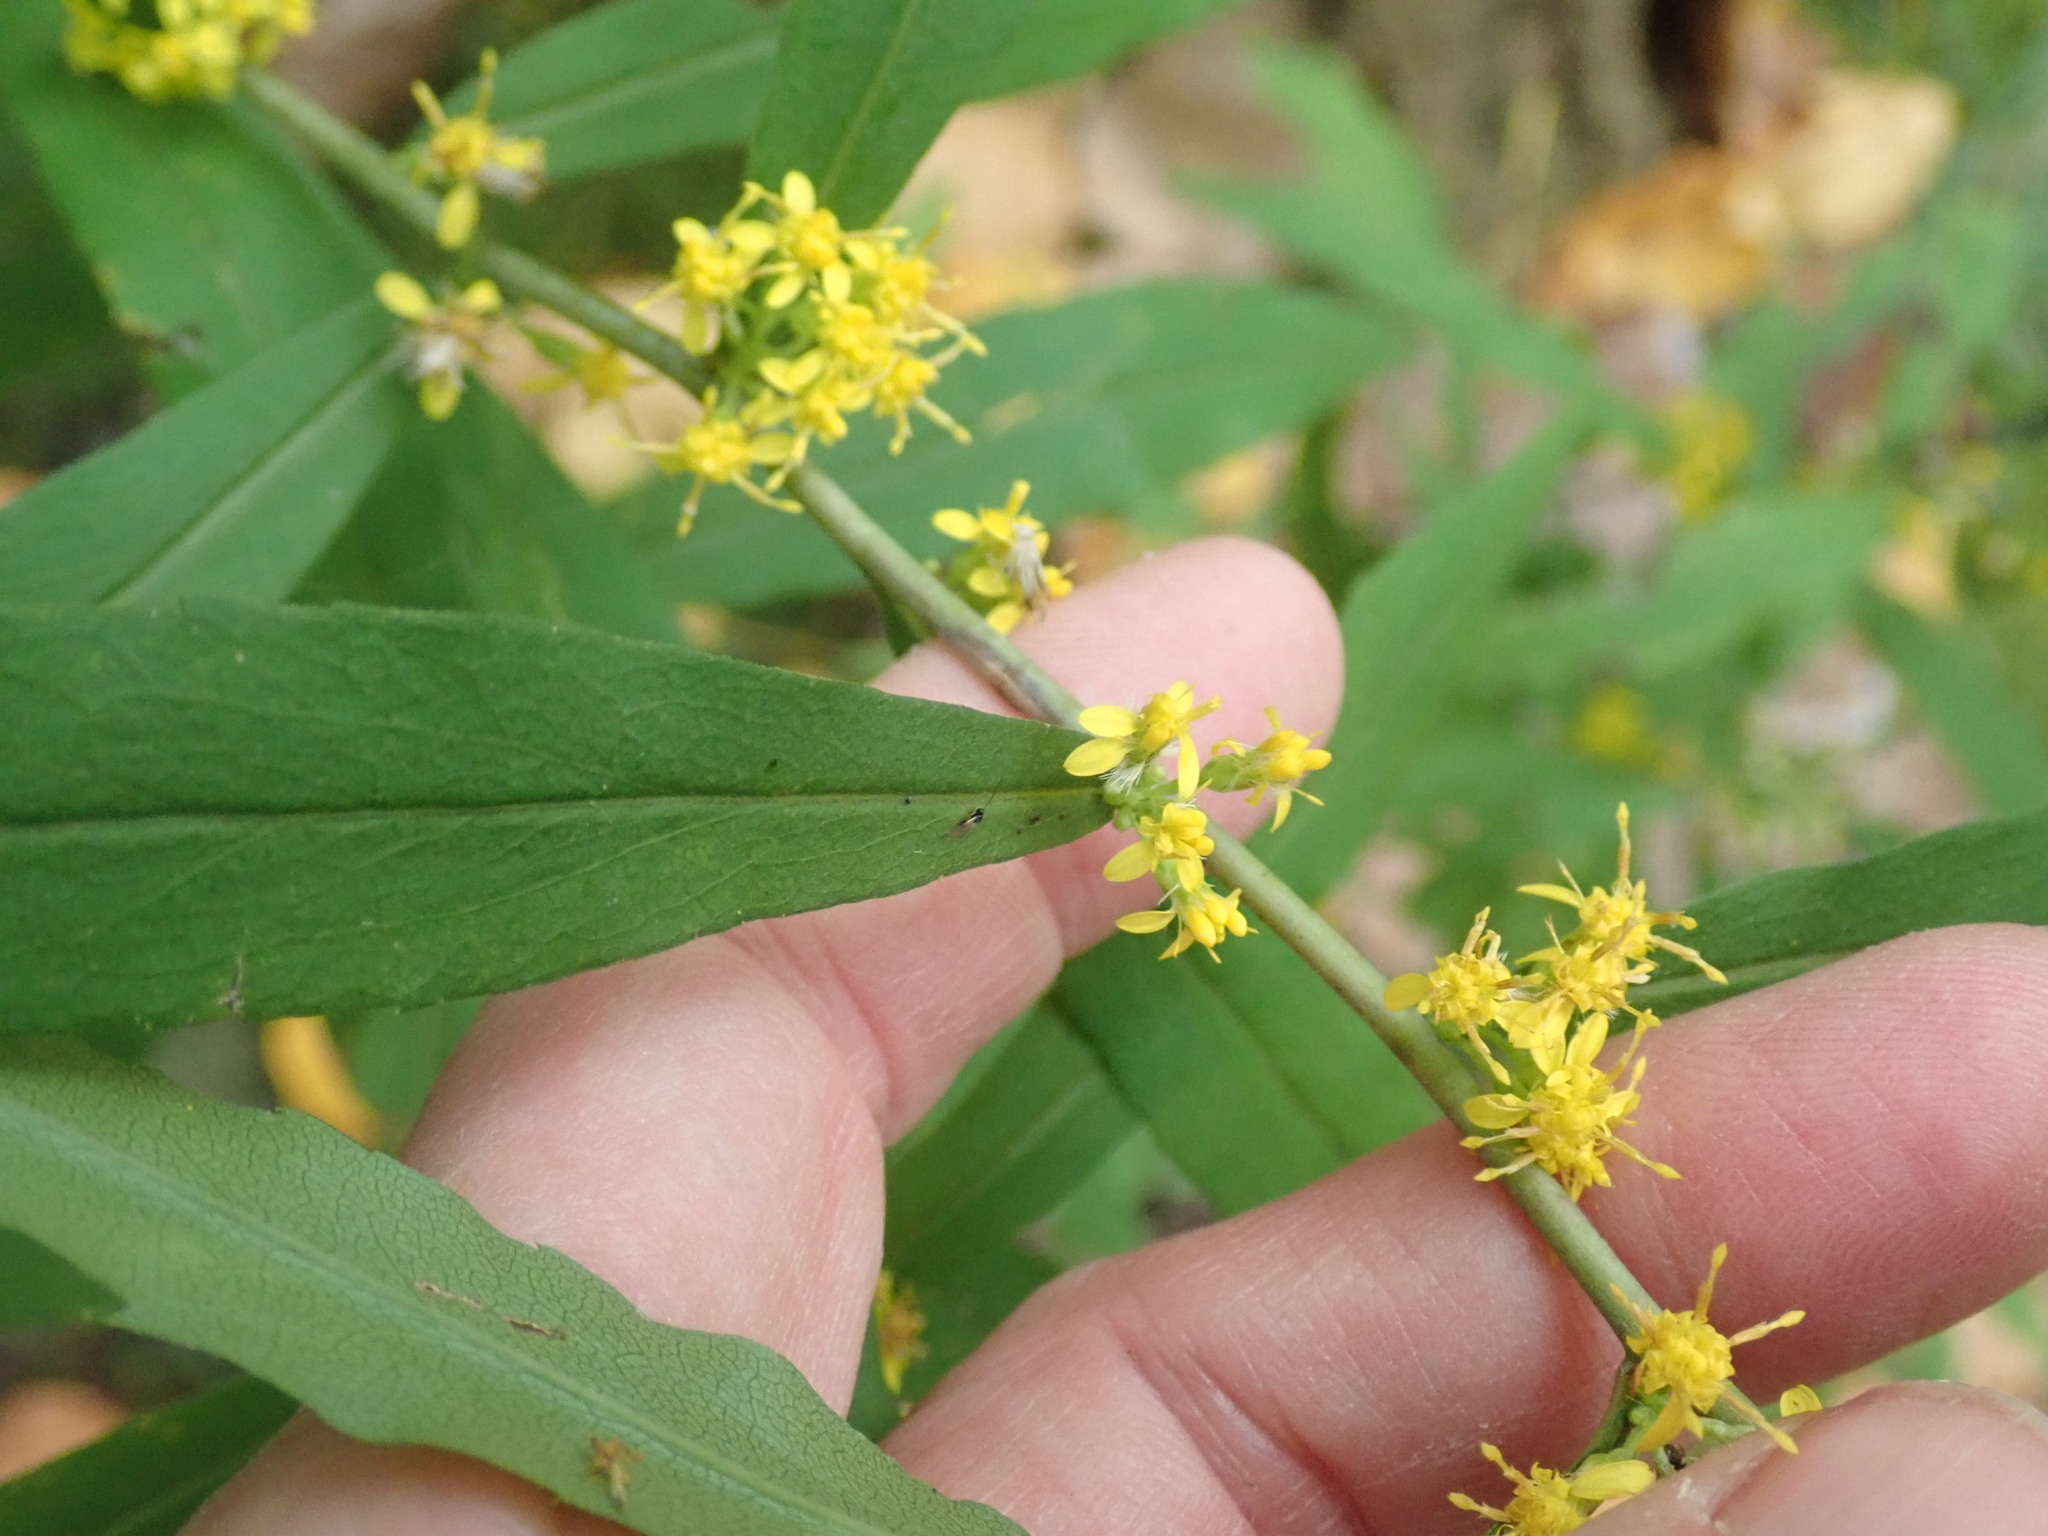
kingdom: Plantae
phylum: Tracheophyta
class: Magnoliopsida
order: Asterales
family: Asteraceae
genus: Solidago
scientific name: Solidago caesia
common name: Woodland goldenrod
